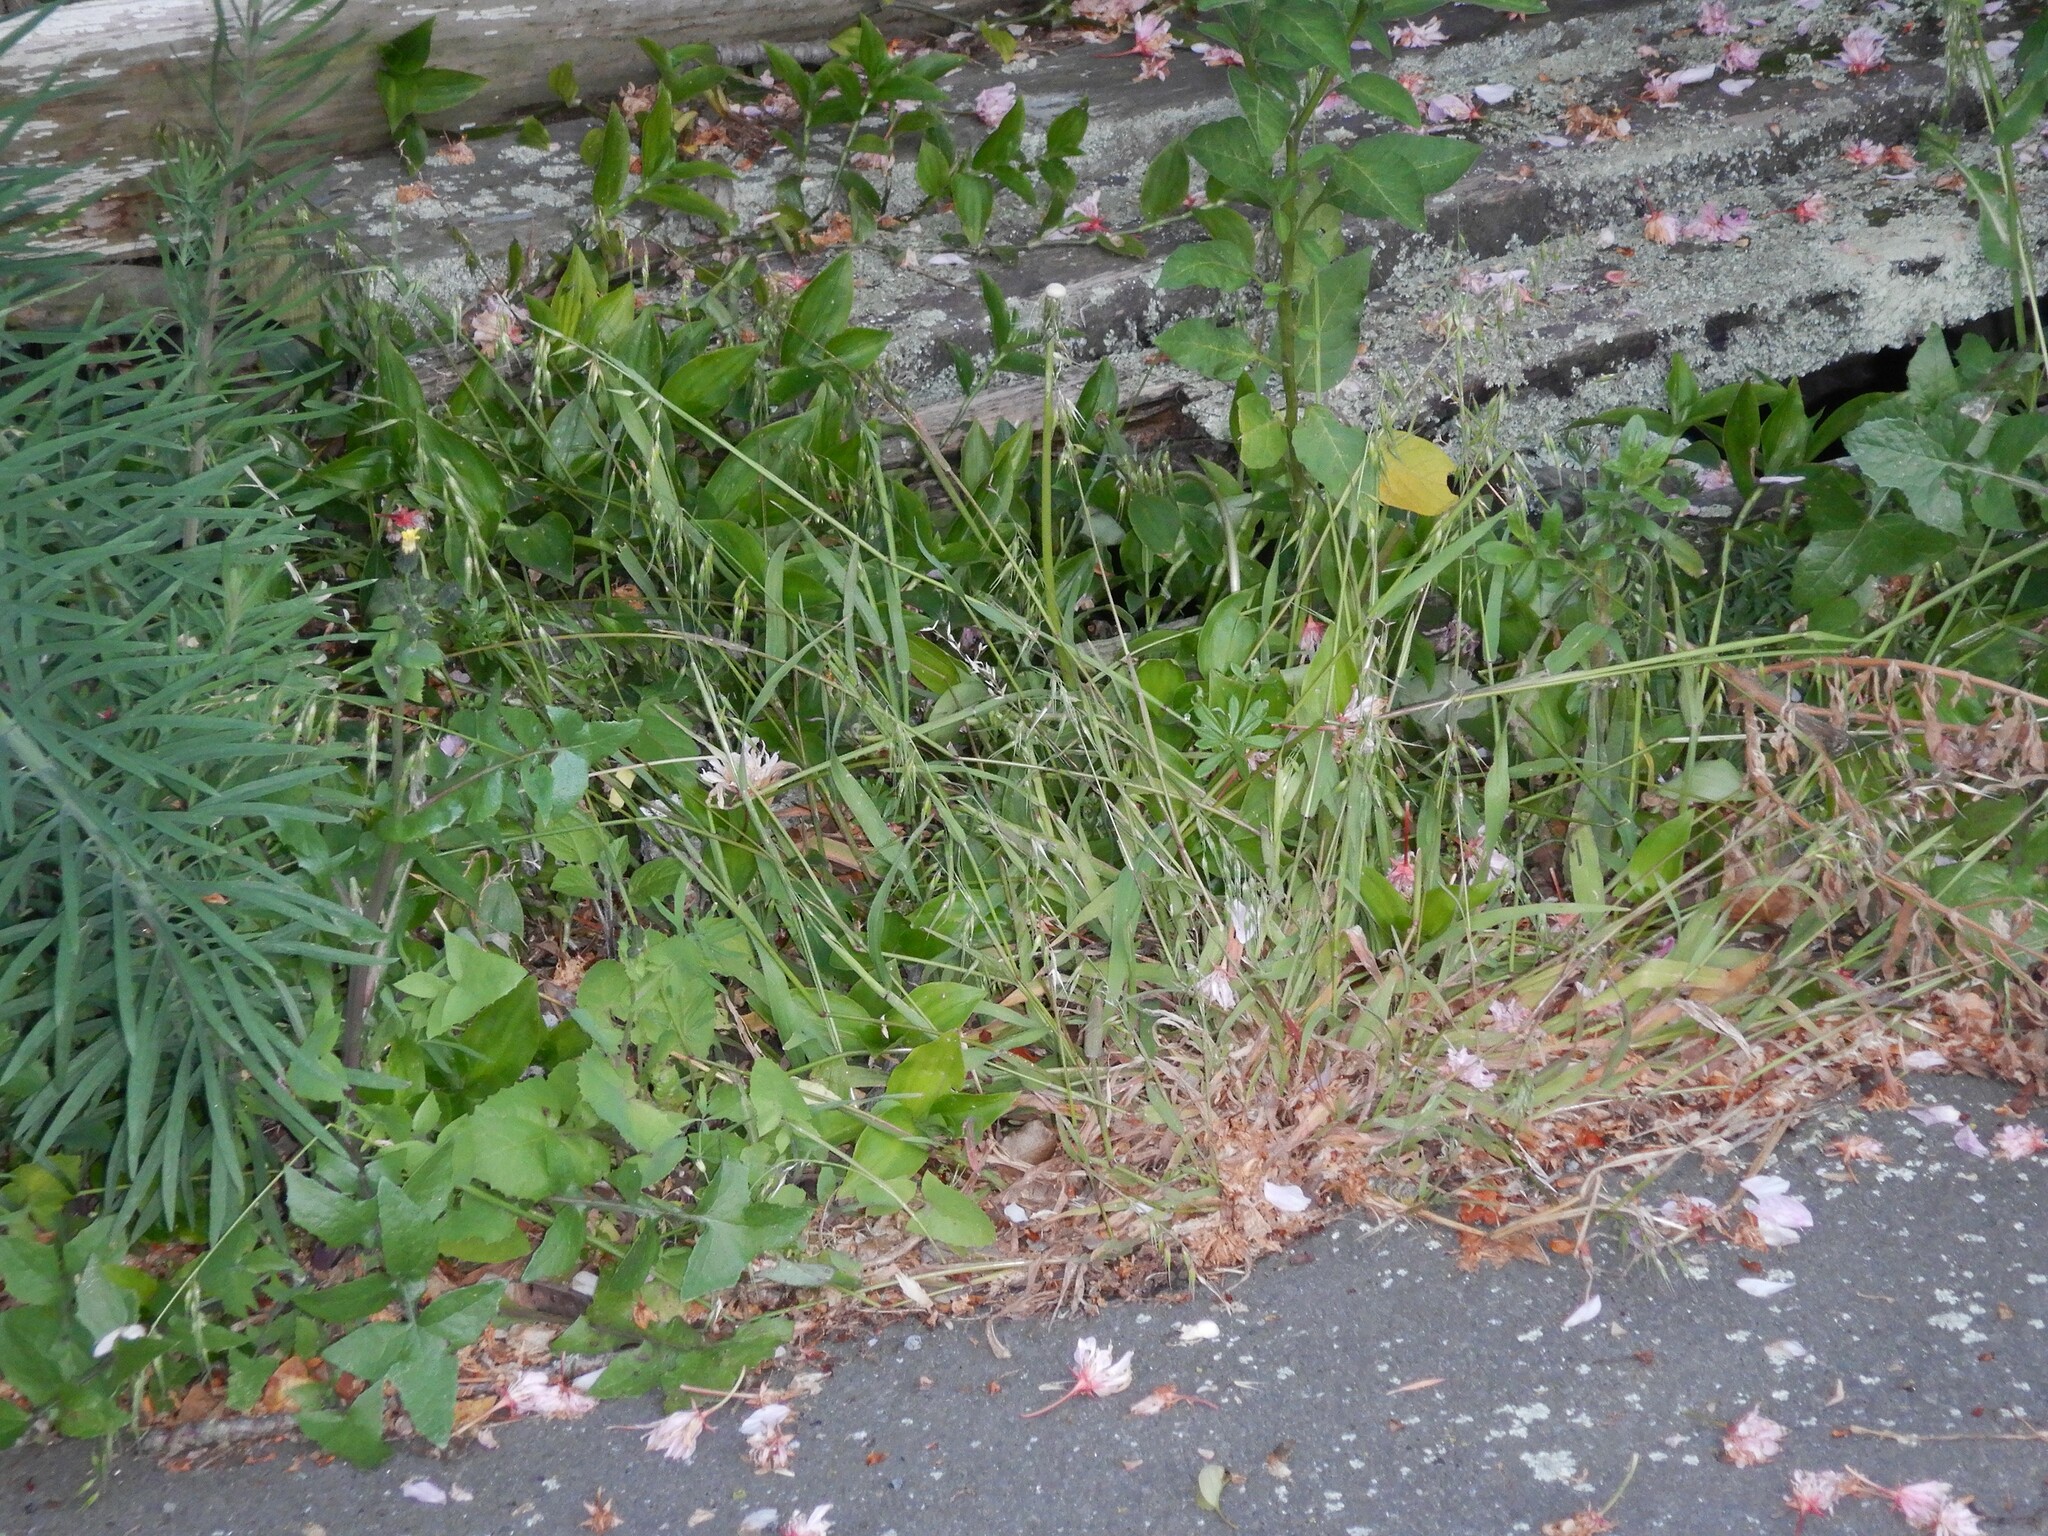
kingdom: Plantae
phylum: Tracheophyta
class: Liliopsida
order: Poales
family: Poaceae
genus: Ehrharta
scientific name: Ehrharta longiflora
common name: Longflowered veldtgrass
